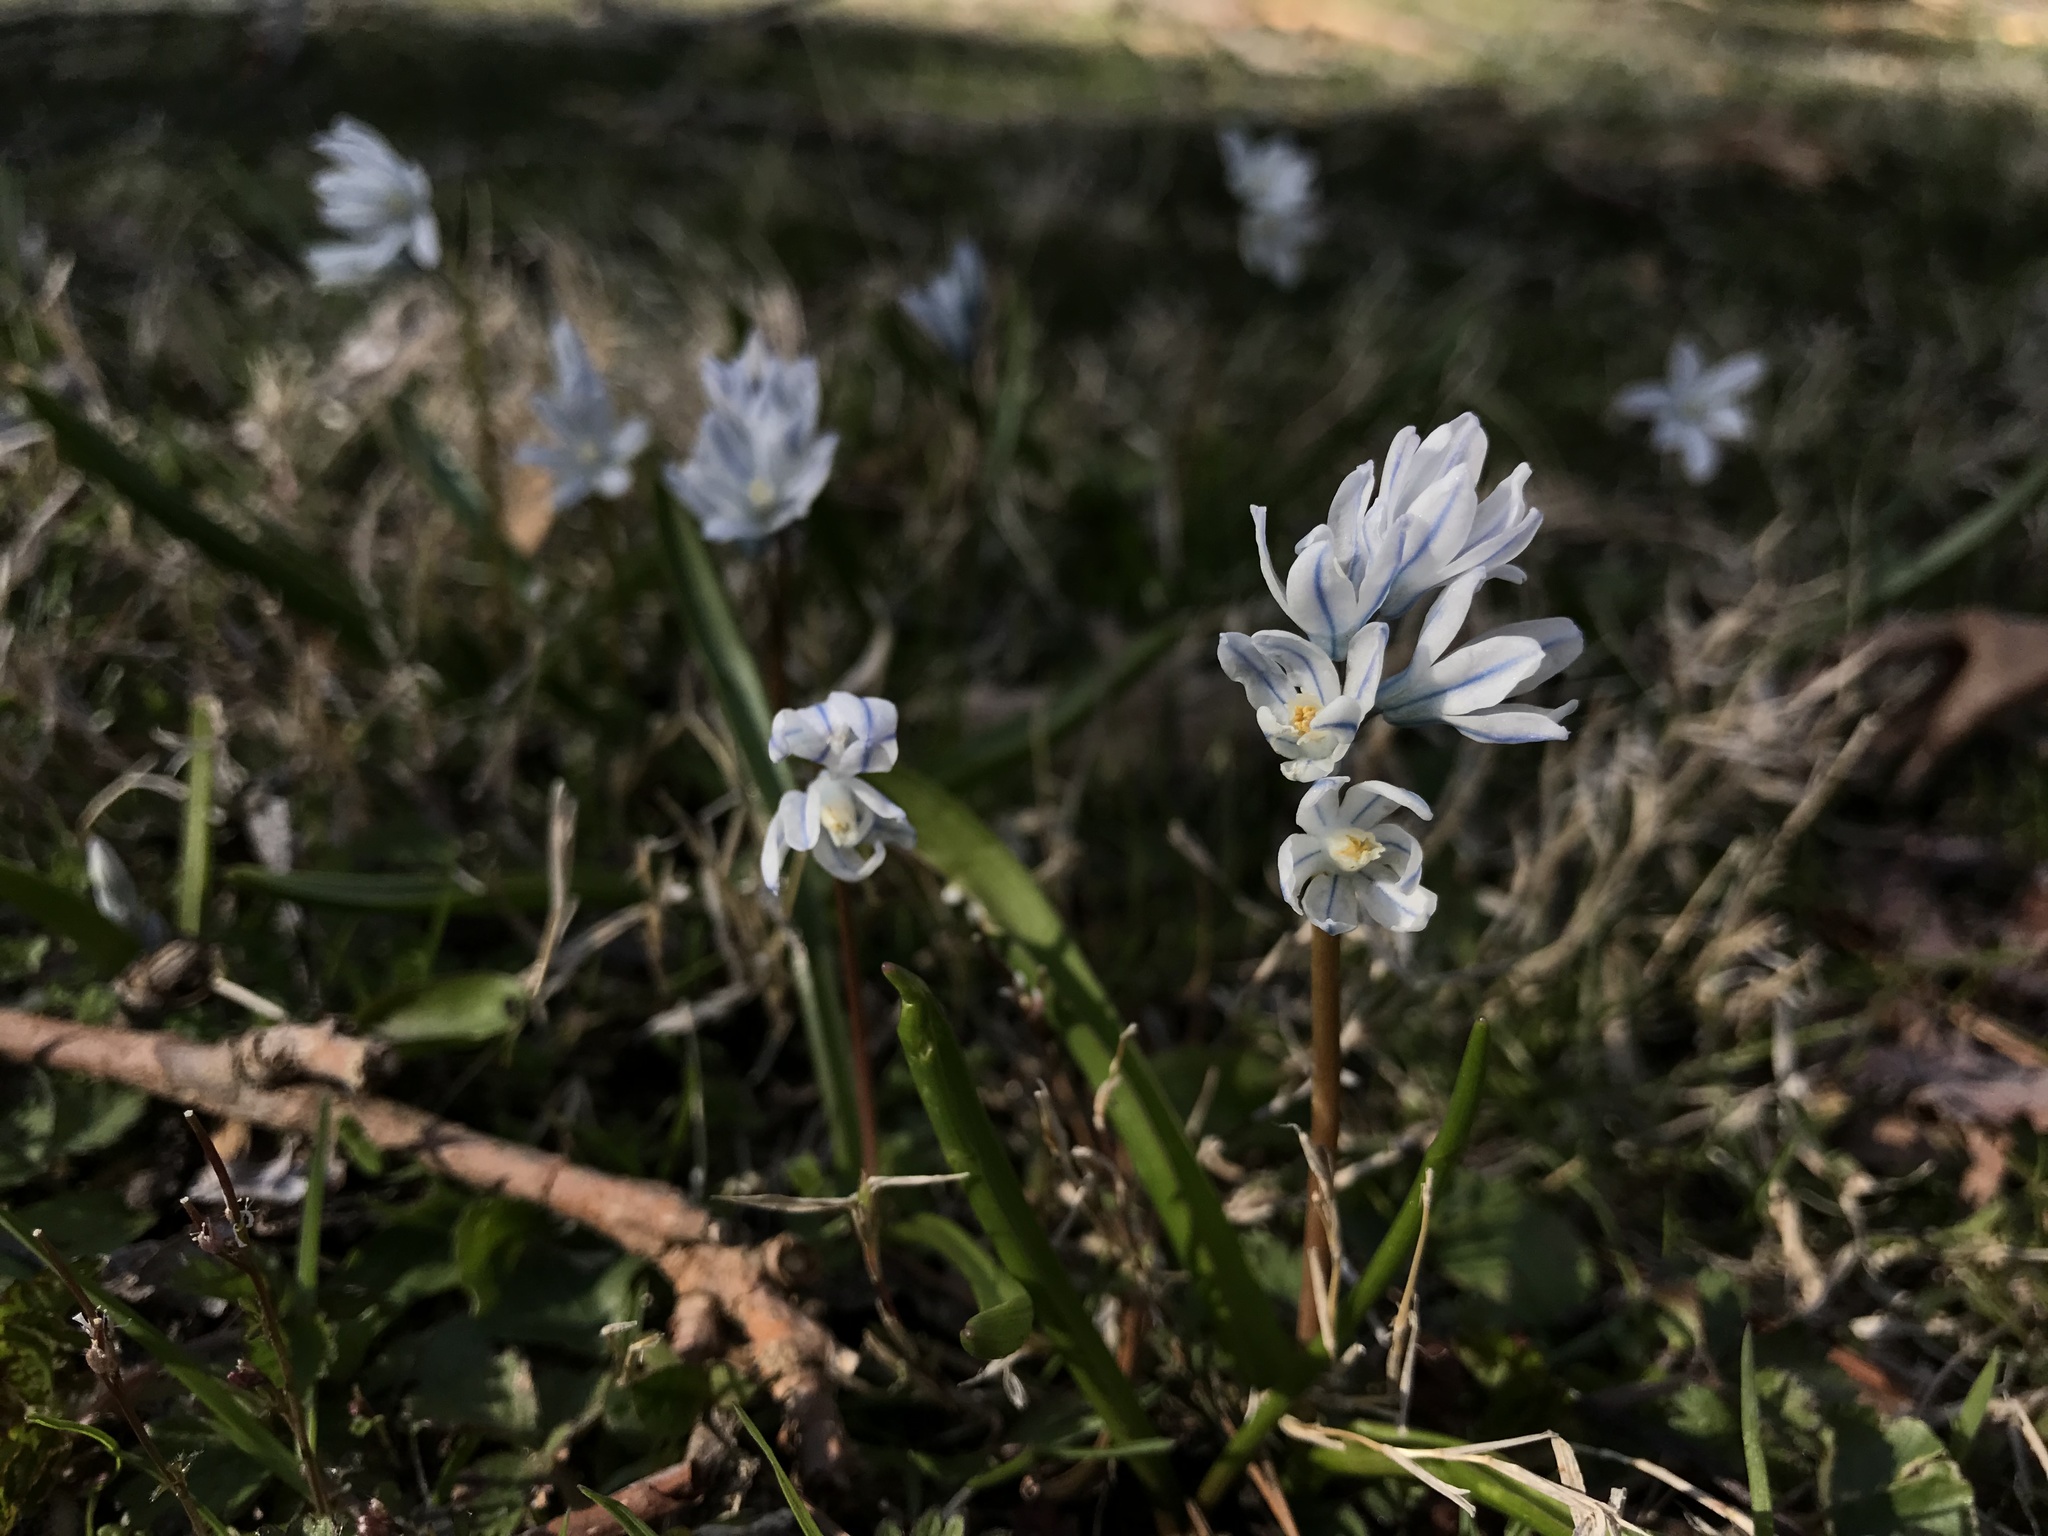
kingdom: Plantae
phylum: Tracheophyta
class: Liliopsida
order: Asparagales
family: Asparagaceae
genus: Puschkinia
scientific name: Puschkinia scilloides
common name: Striped squill
